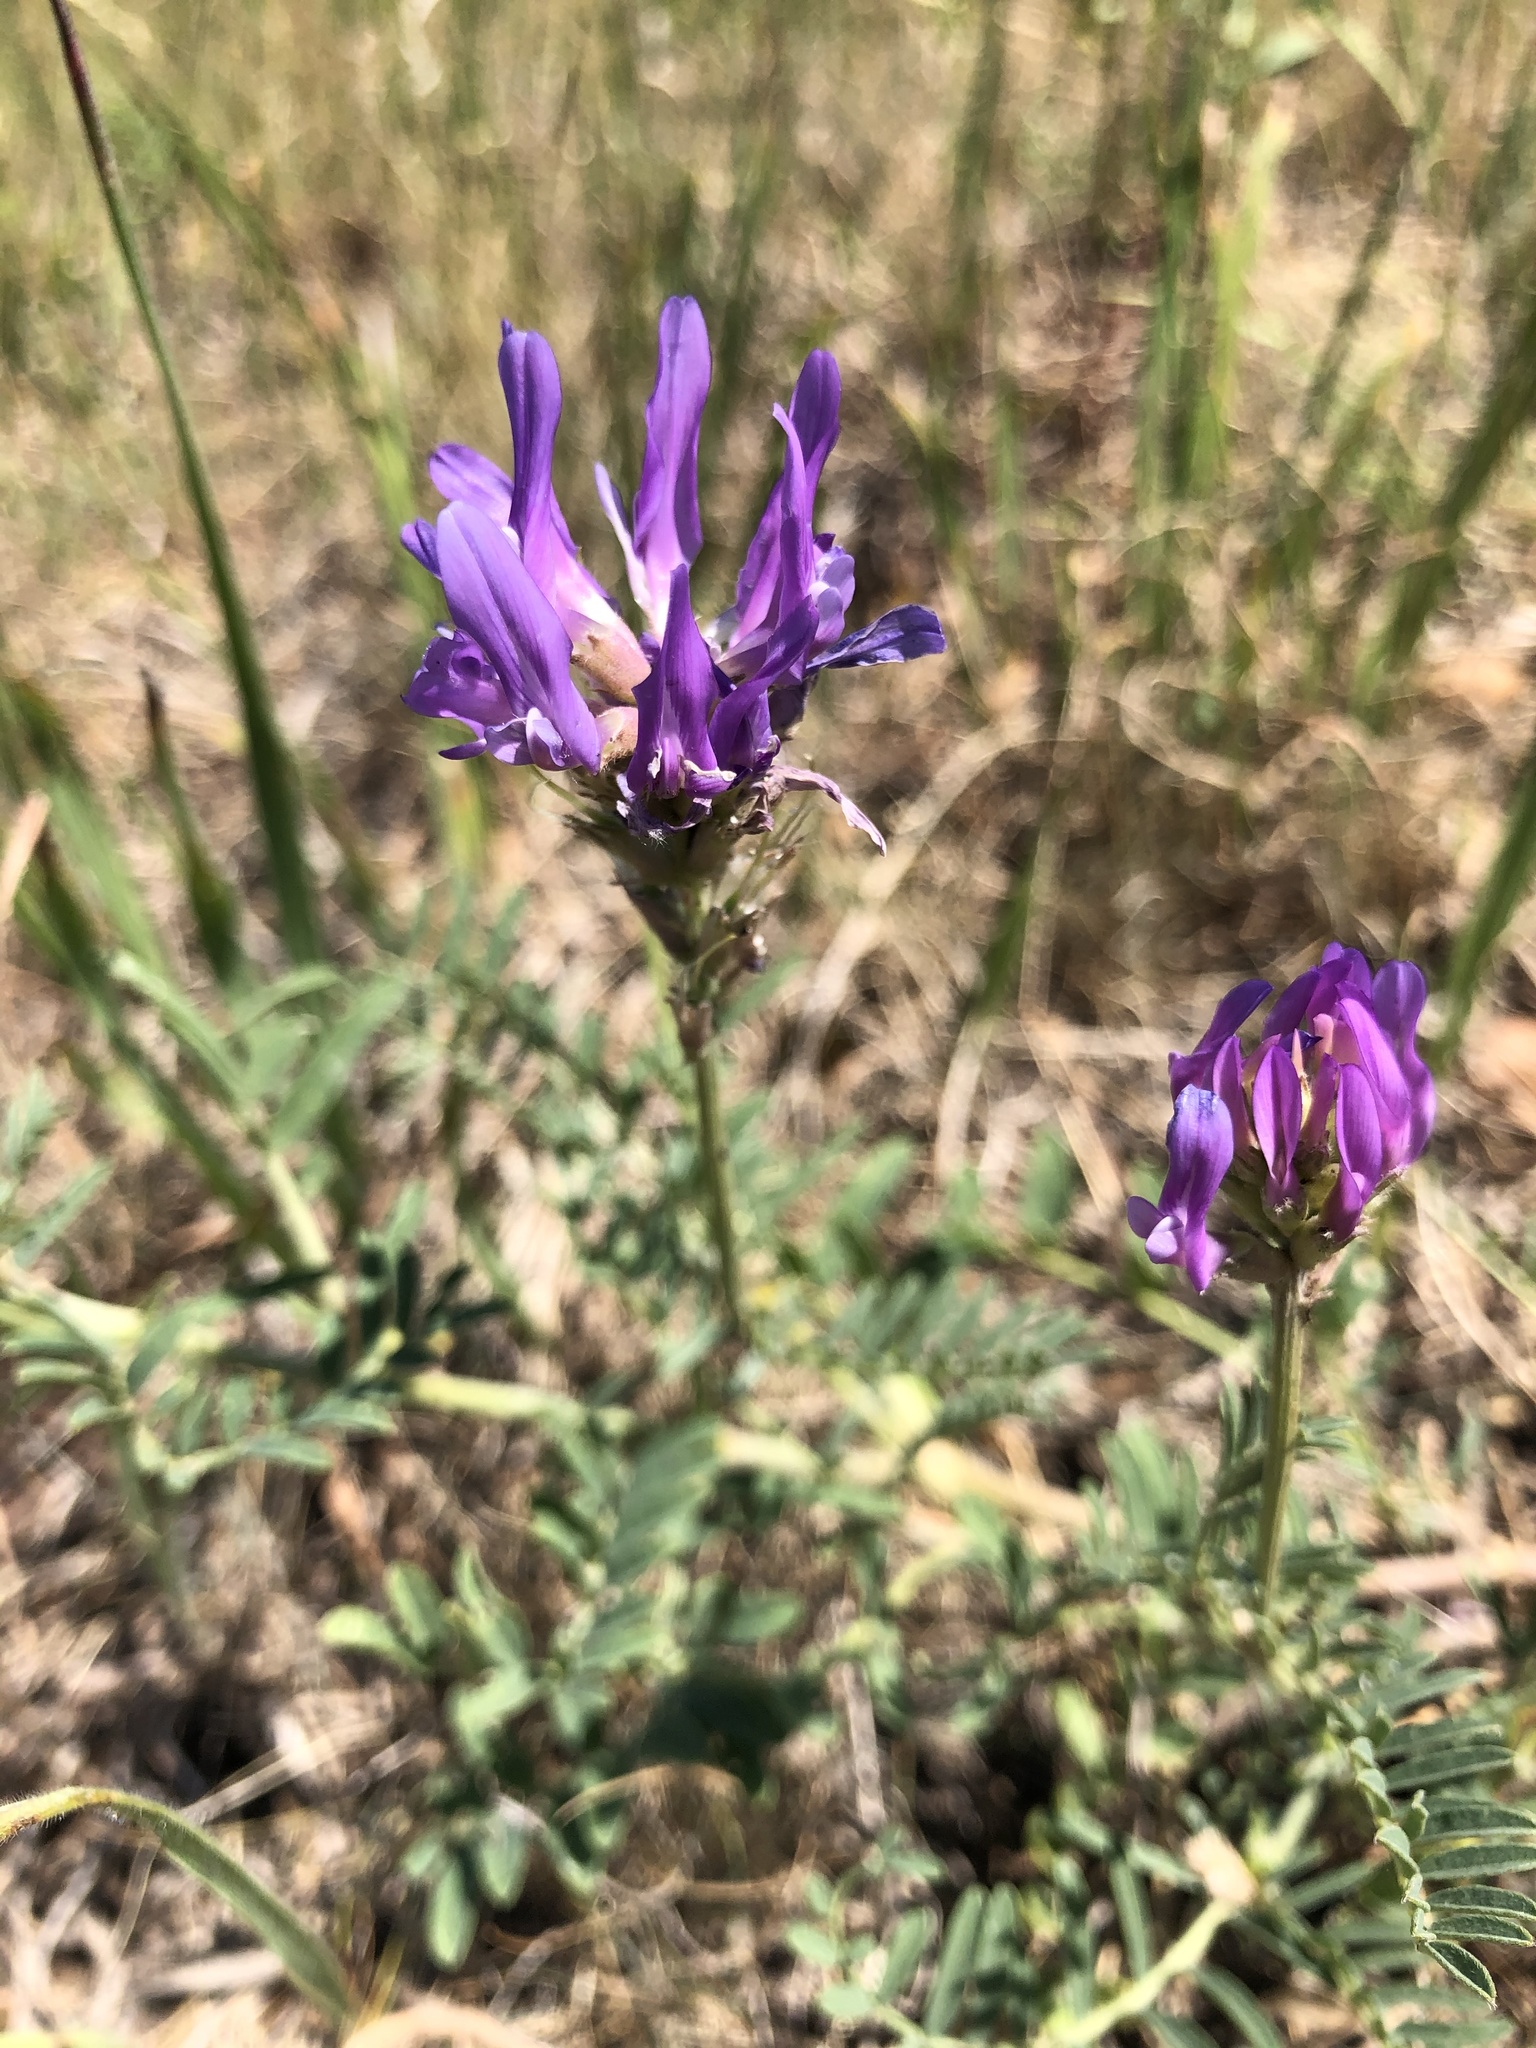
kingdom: Plantae
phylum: Tracheophyta
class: Magnoliopsida
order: Fabales
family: Fabaceae
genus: Astragalus
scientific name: Astragalus onobrychis
